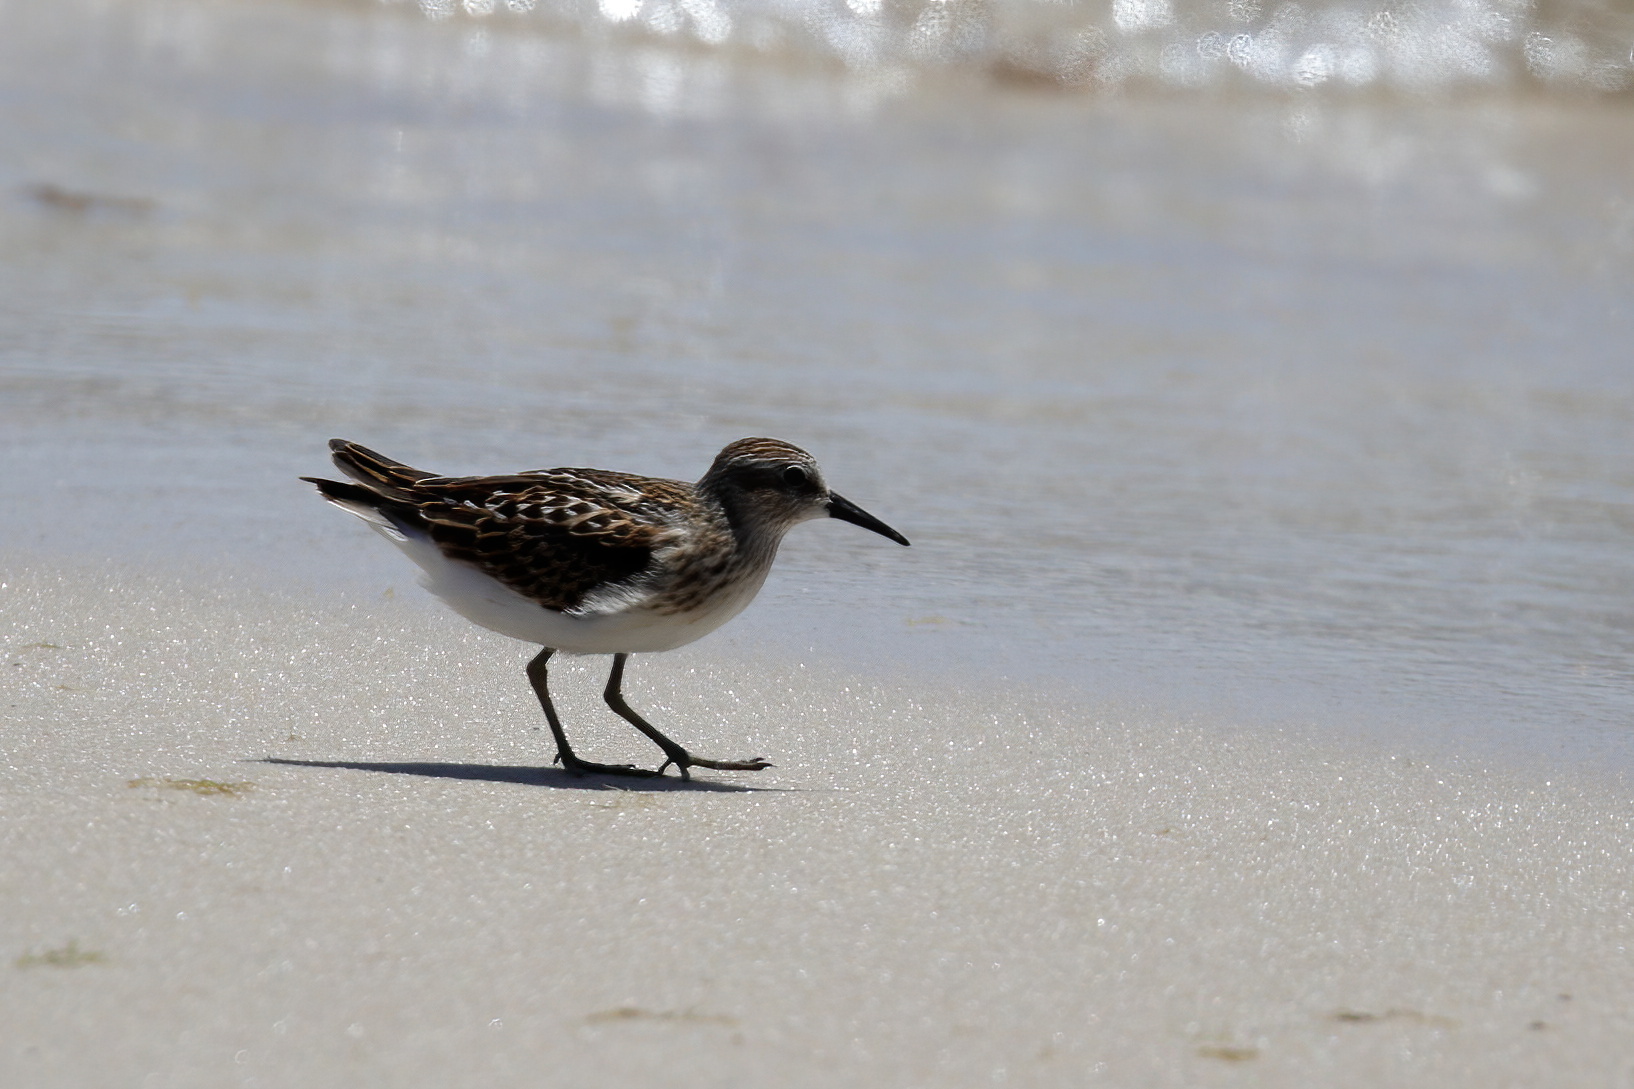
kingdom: Animalia
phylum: Chordata
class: Aves
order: Charadriiformes
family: Scolopacidae
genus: Calidris
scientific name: Calidris minutilla
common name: Least sandpiper
